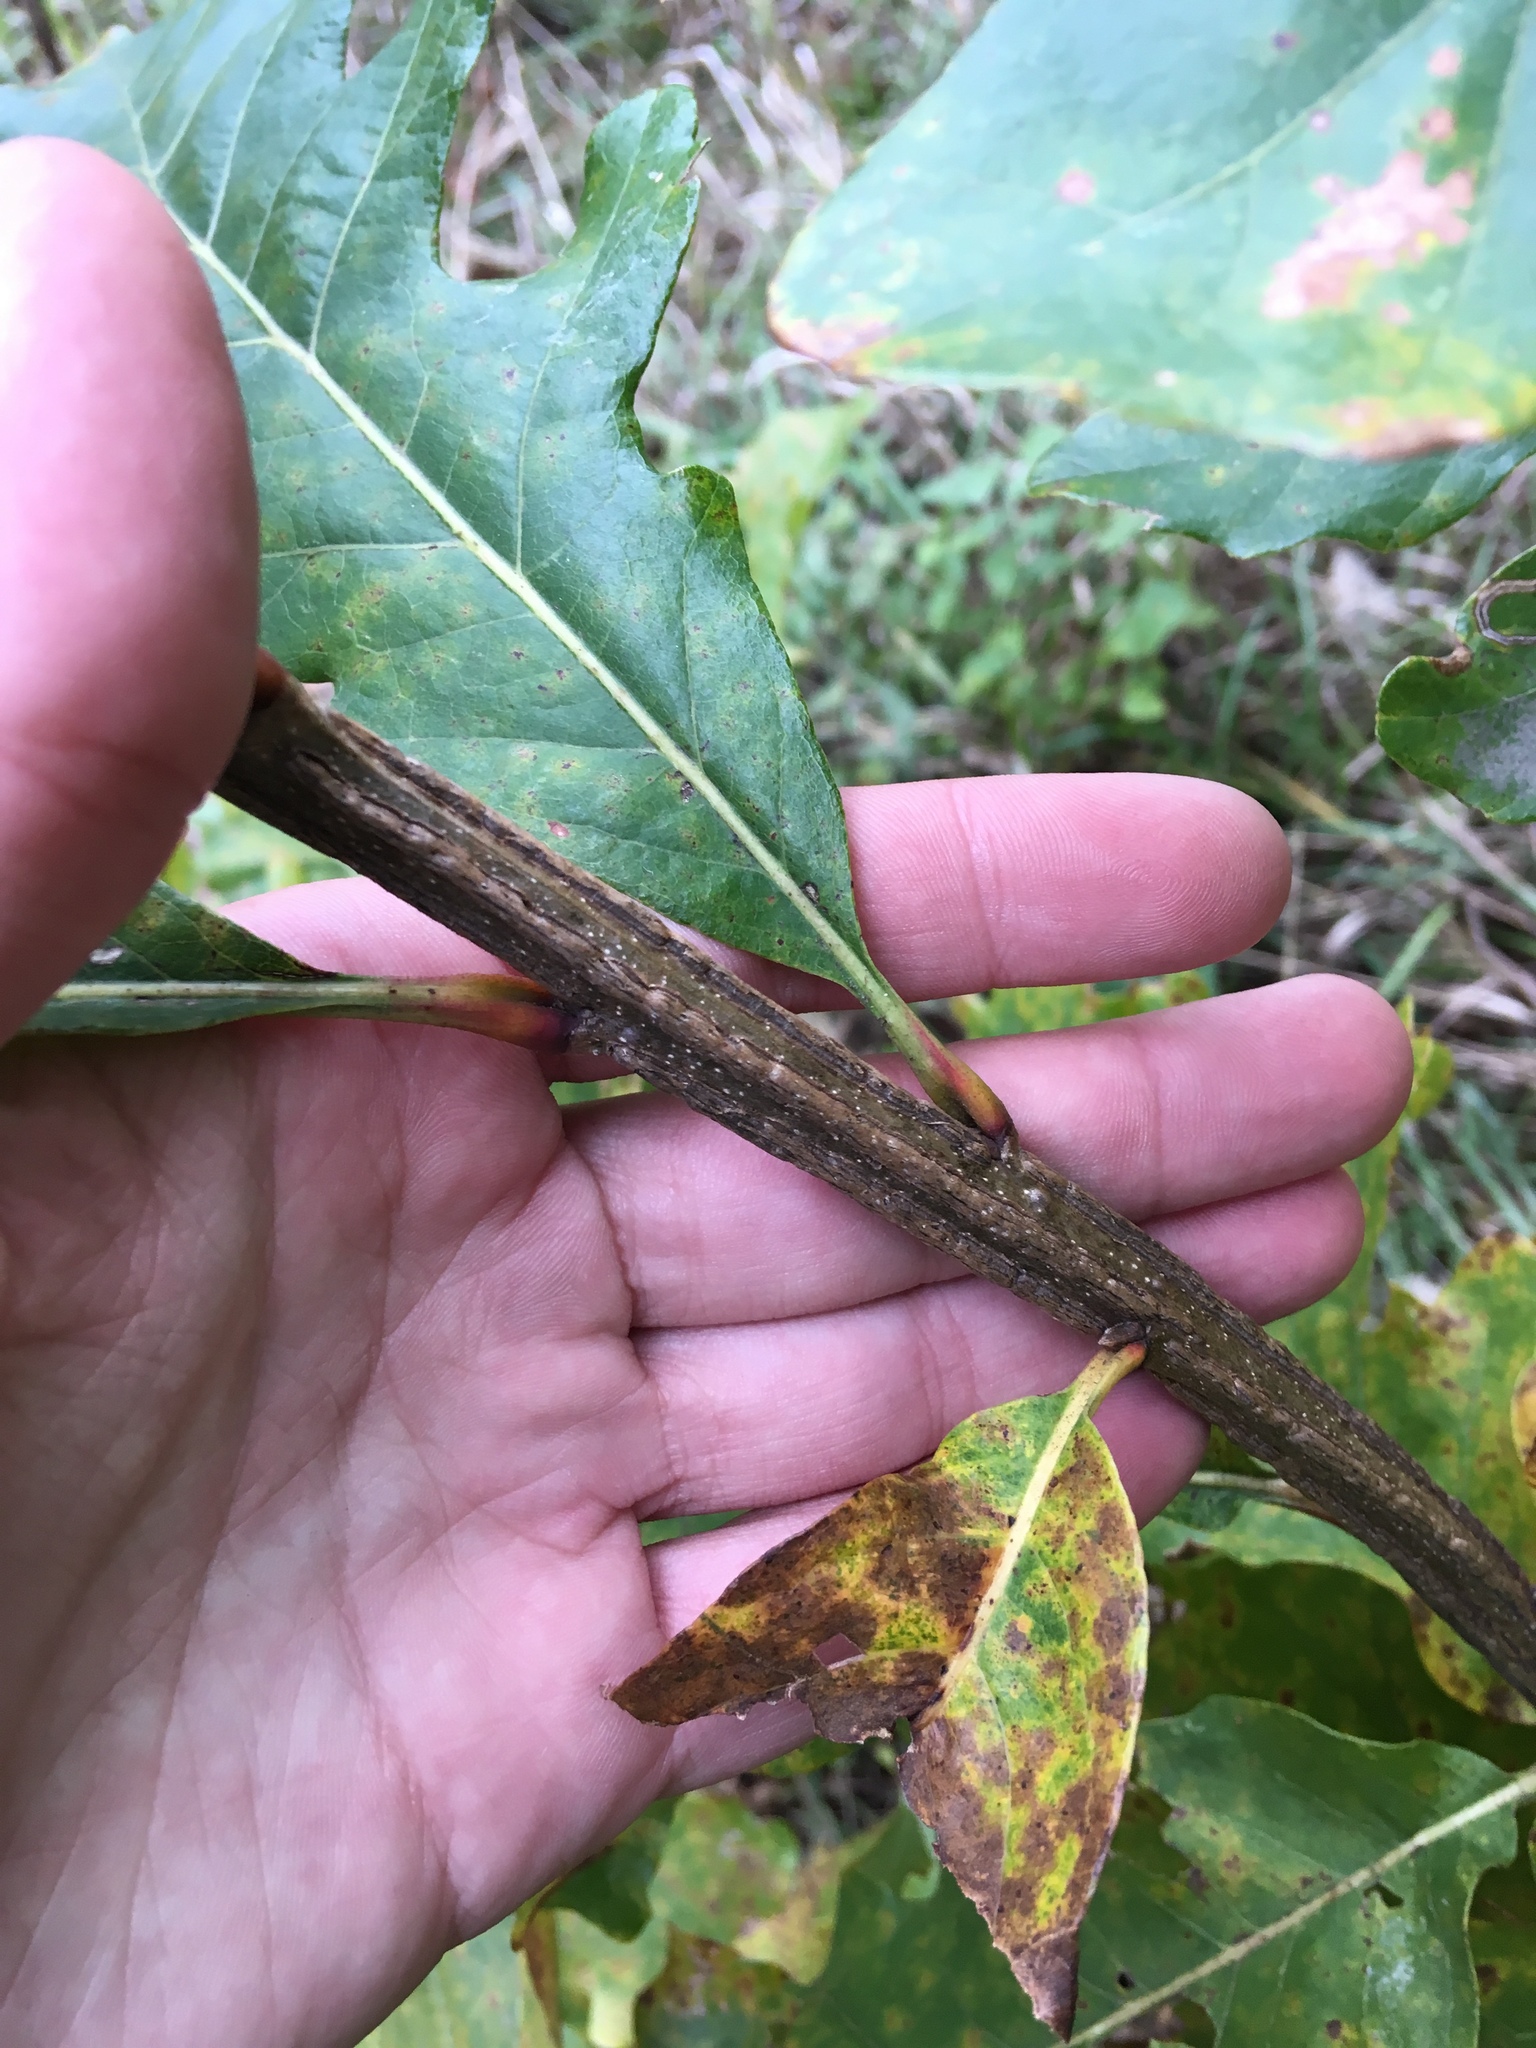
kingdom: Plantae
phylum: Tracheophyta
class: Magnoliopsida
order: Fagales
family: Fagaceae
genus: Quercus
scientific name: Quercus macrocarpa
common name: Bur oak
